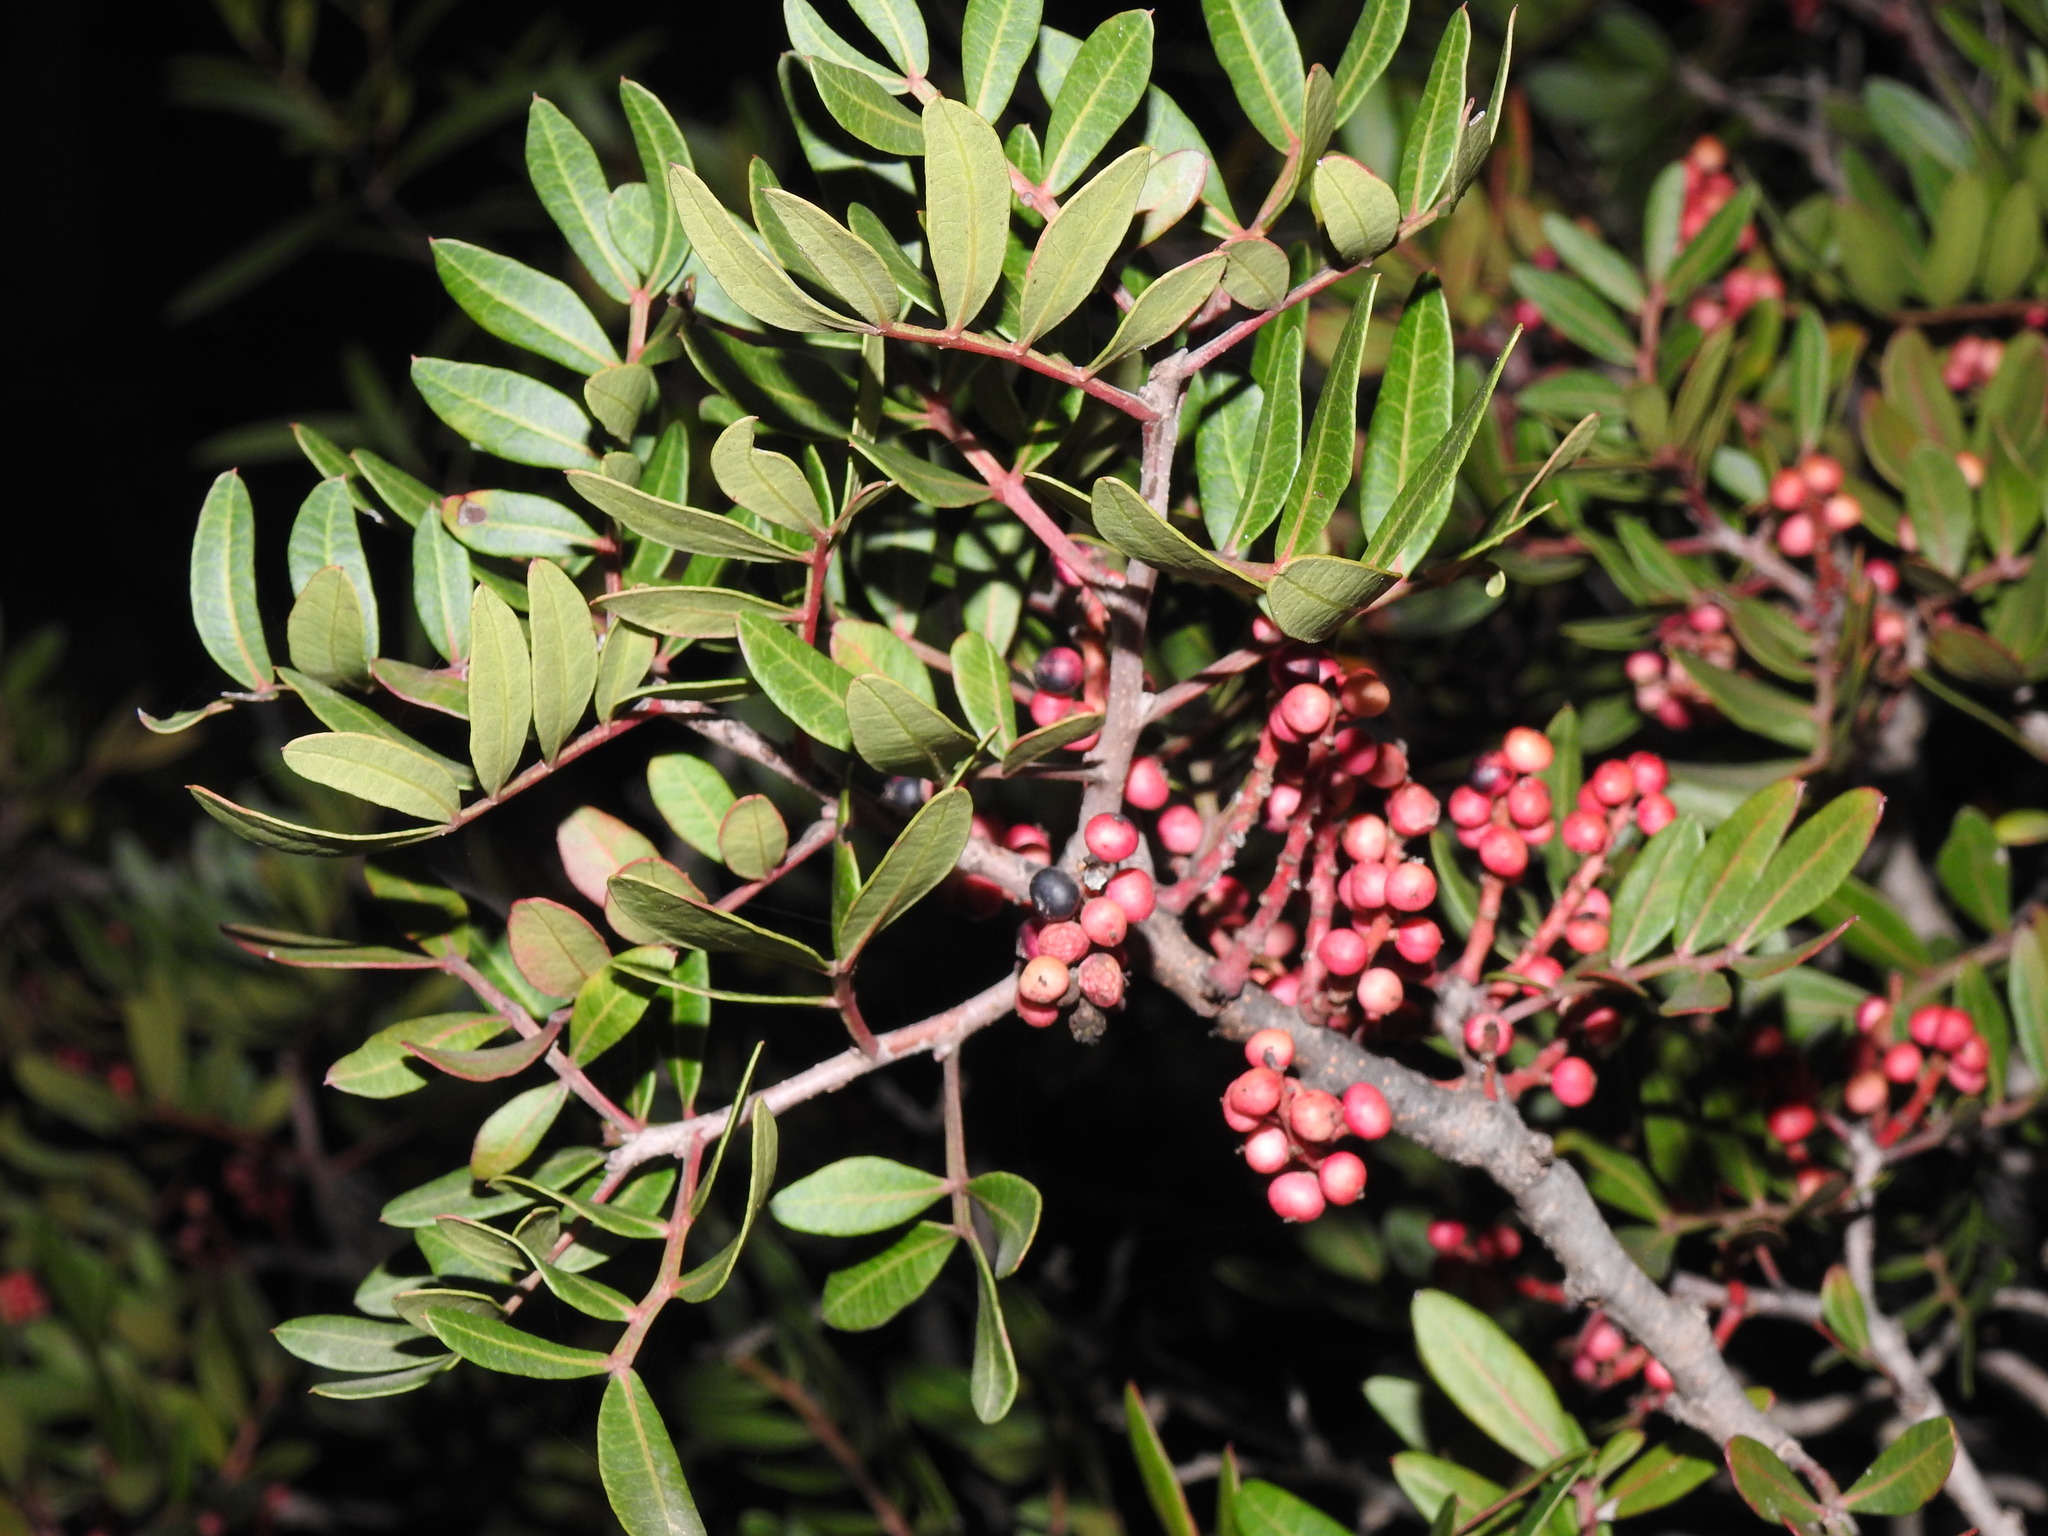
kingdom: Plantae
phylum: Tracheophyta
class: Magnoliopsida
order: Sapindales
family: Anacardiaceae
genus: Pistacia
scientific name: Pistacia lentiscus
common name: Lentisk
